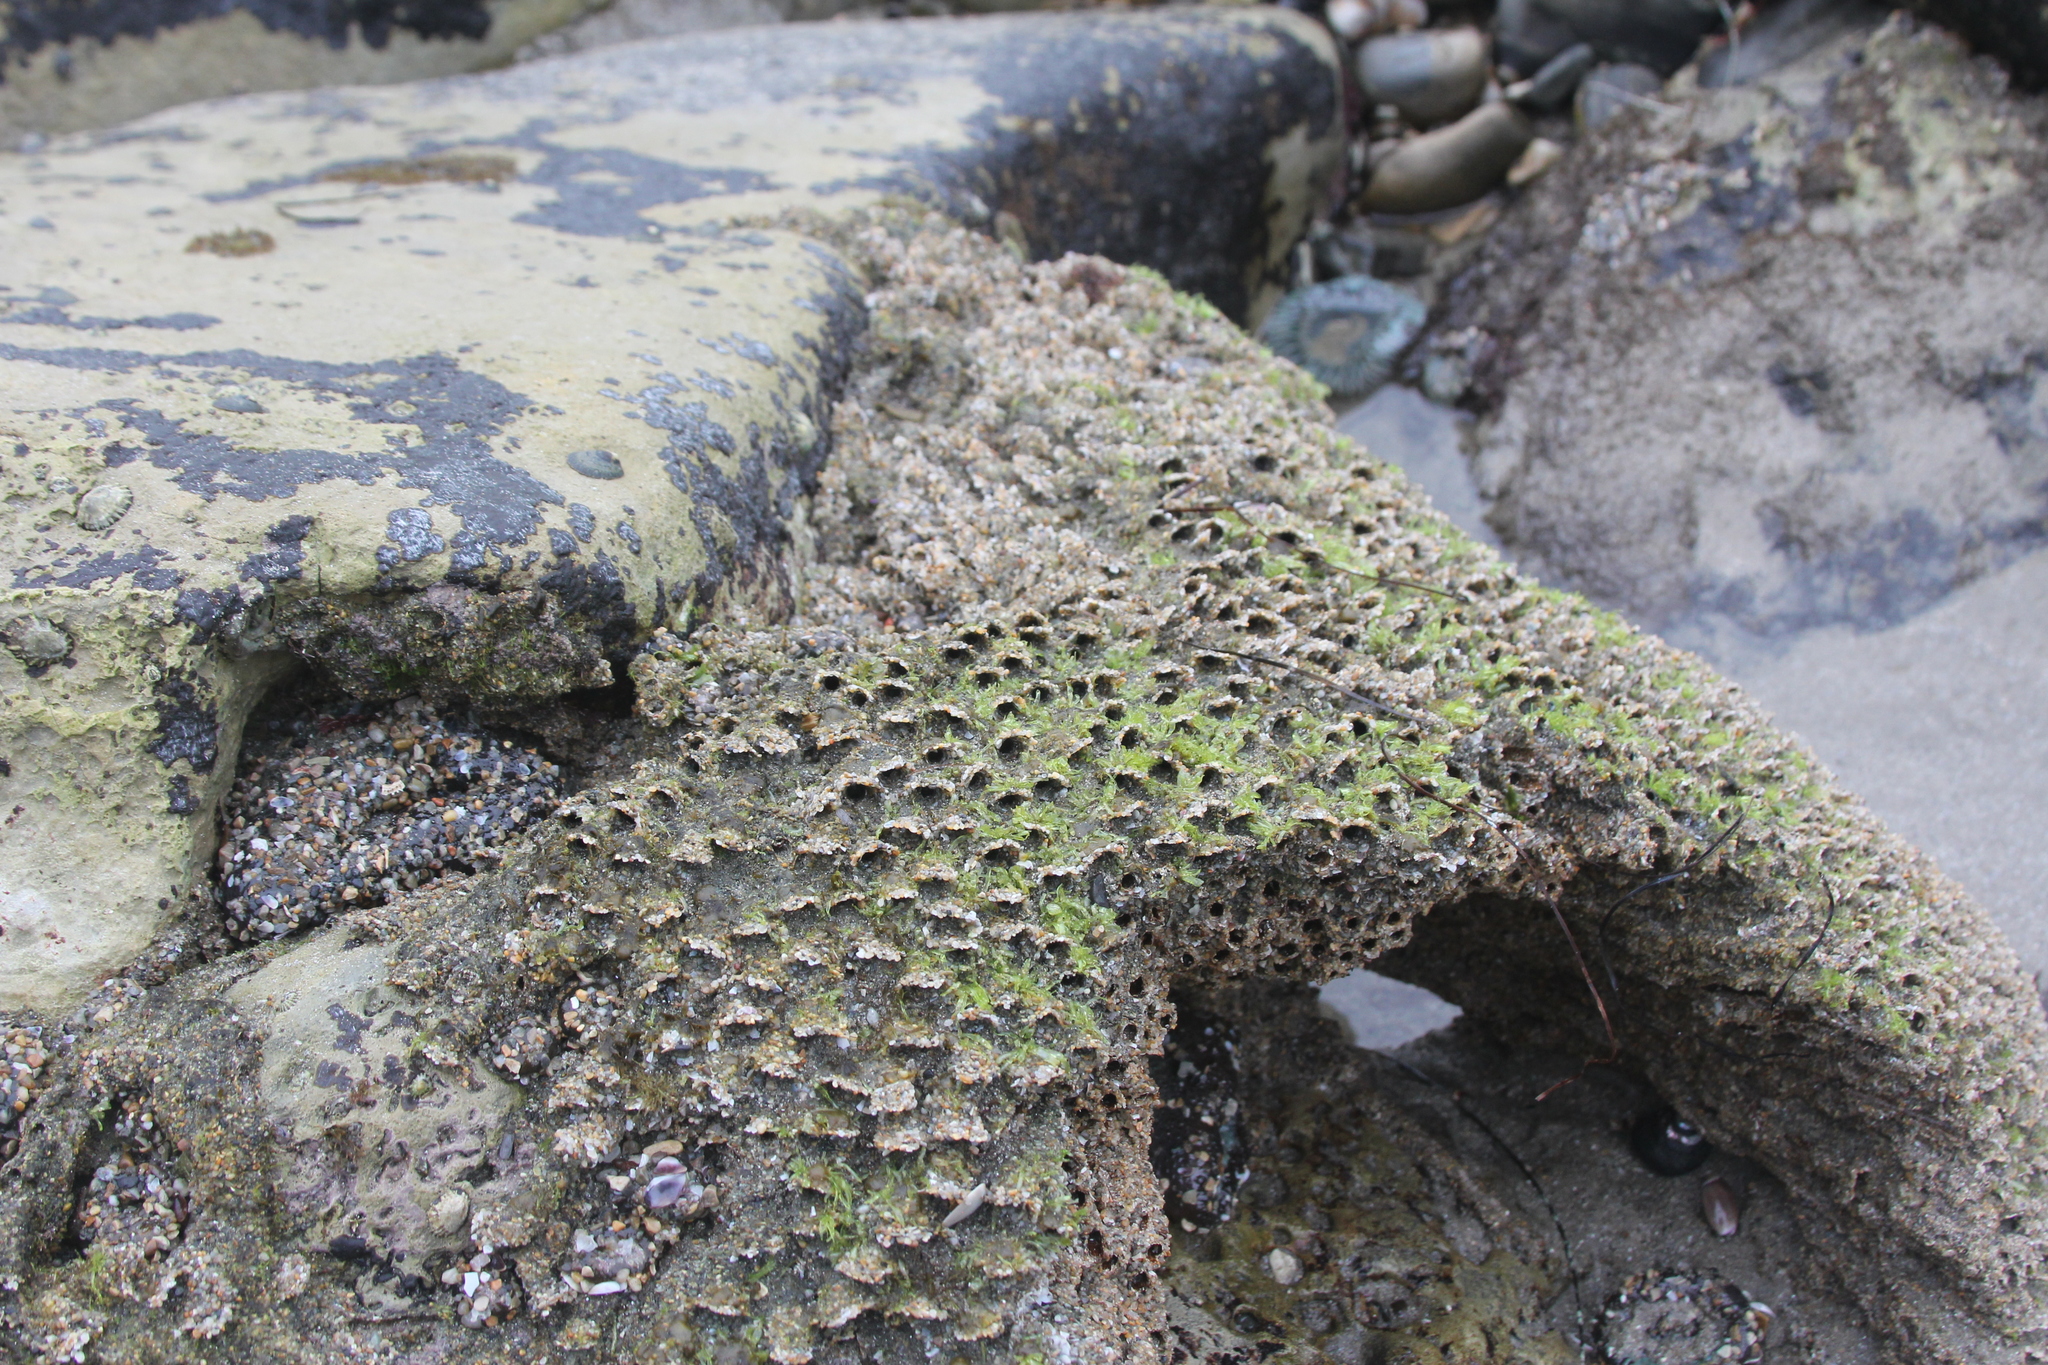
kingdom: Animalia
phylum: Annelida
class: Polychaeta
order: Sabellida
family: Sabellariidae
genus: Phragmatopoma
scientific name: Phragmatopoma californica
